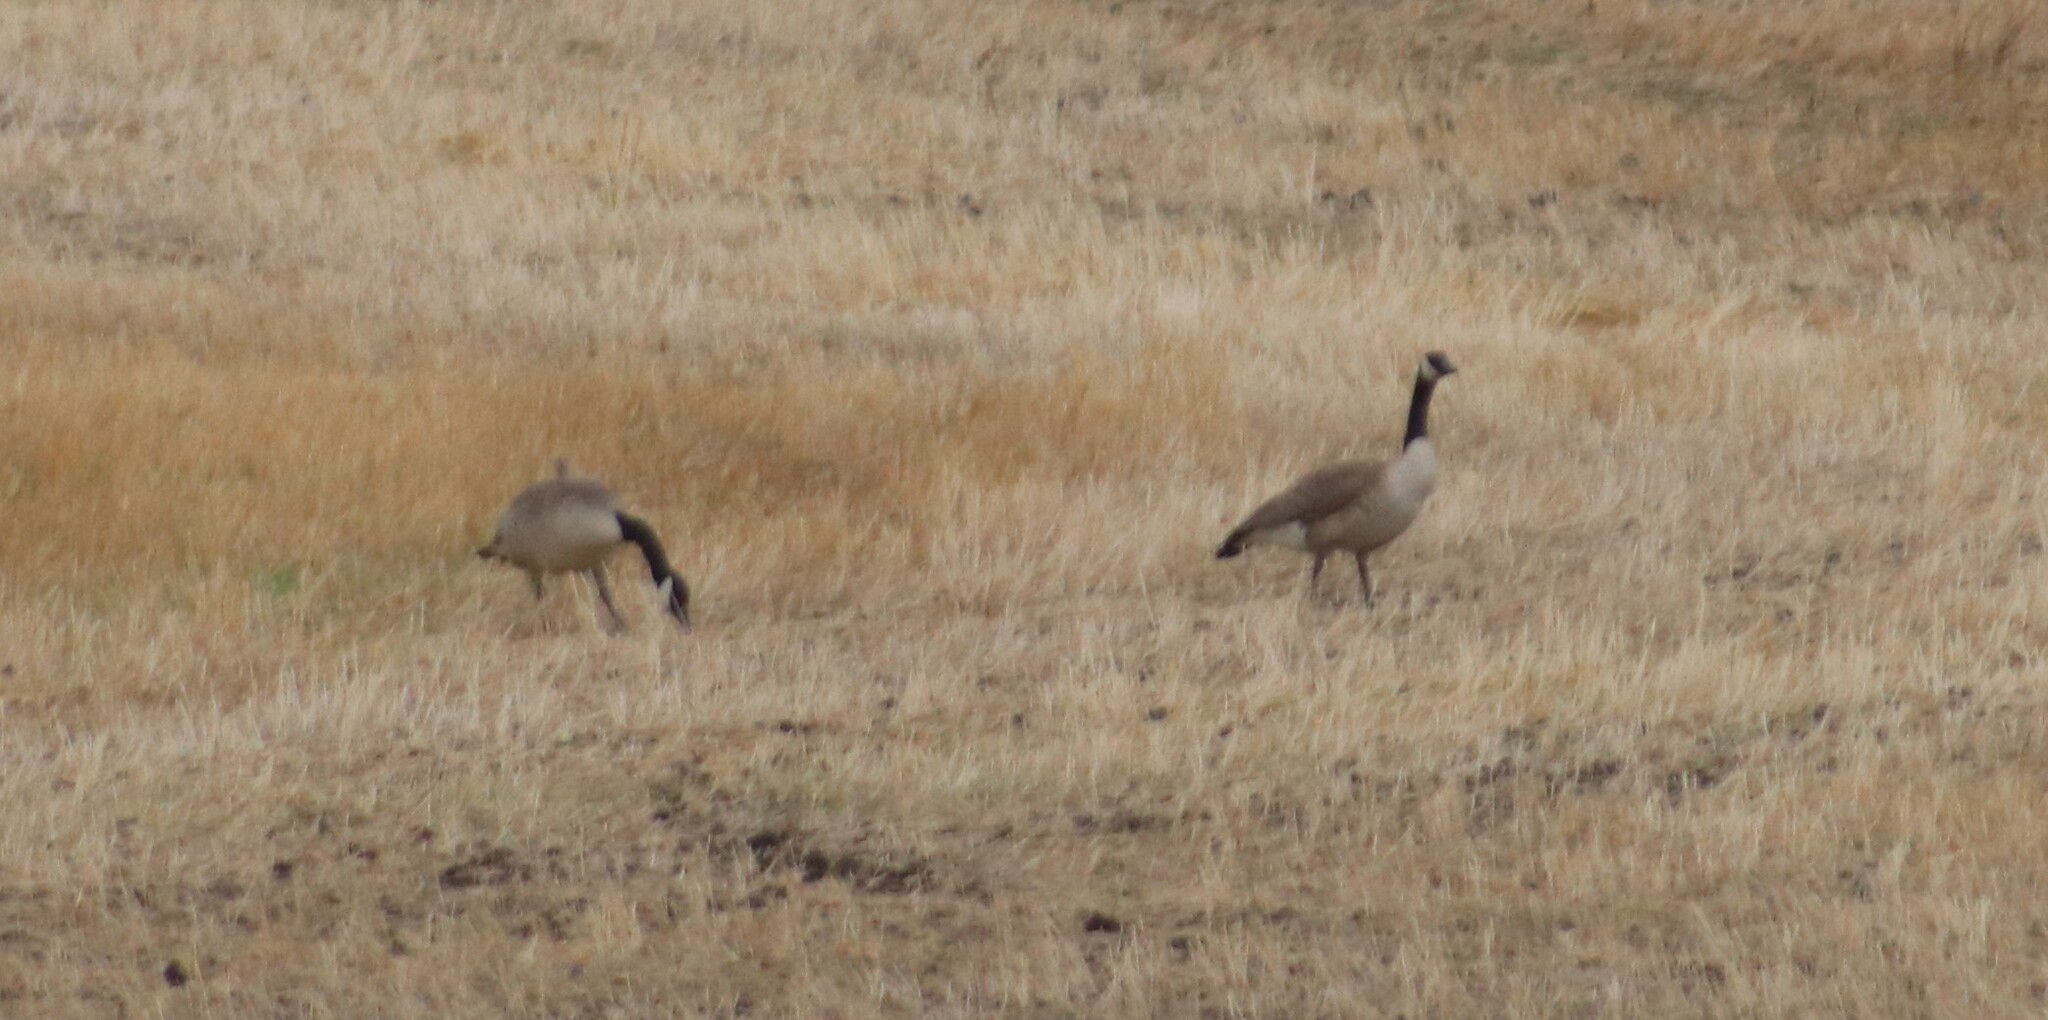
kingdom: Animalia
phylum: Chordata
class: Aves
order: Anseriformes
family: Anatidae
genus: Branta
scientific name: Branta canadensis
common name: Canada goose
